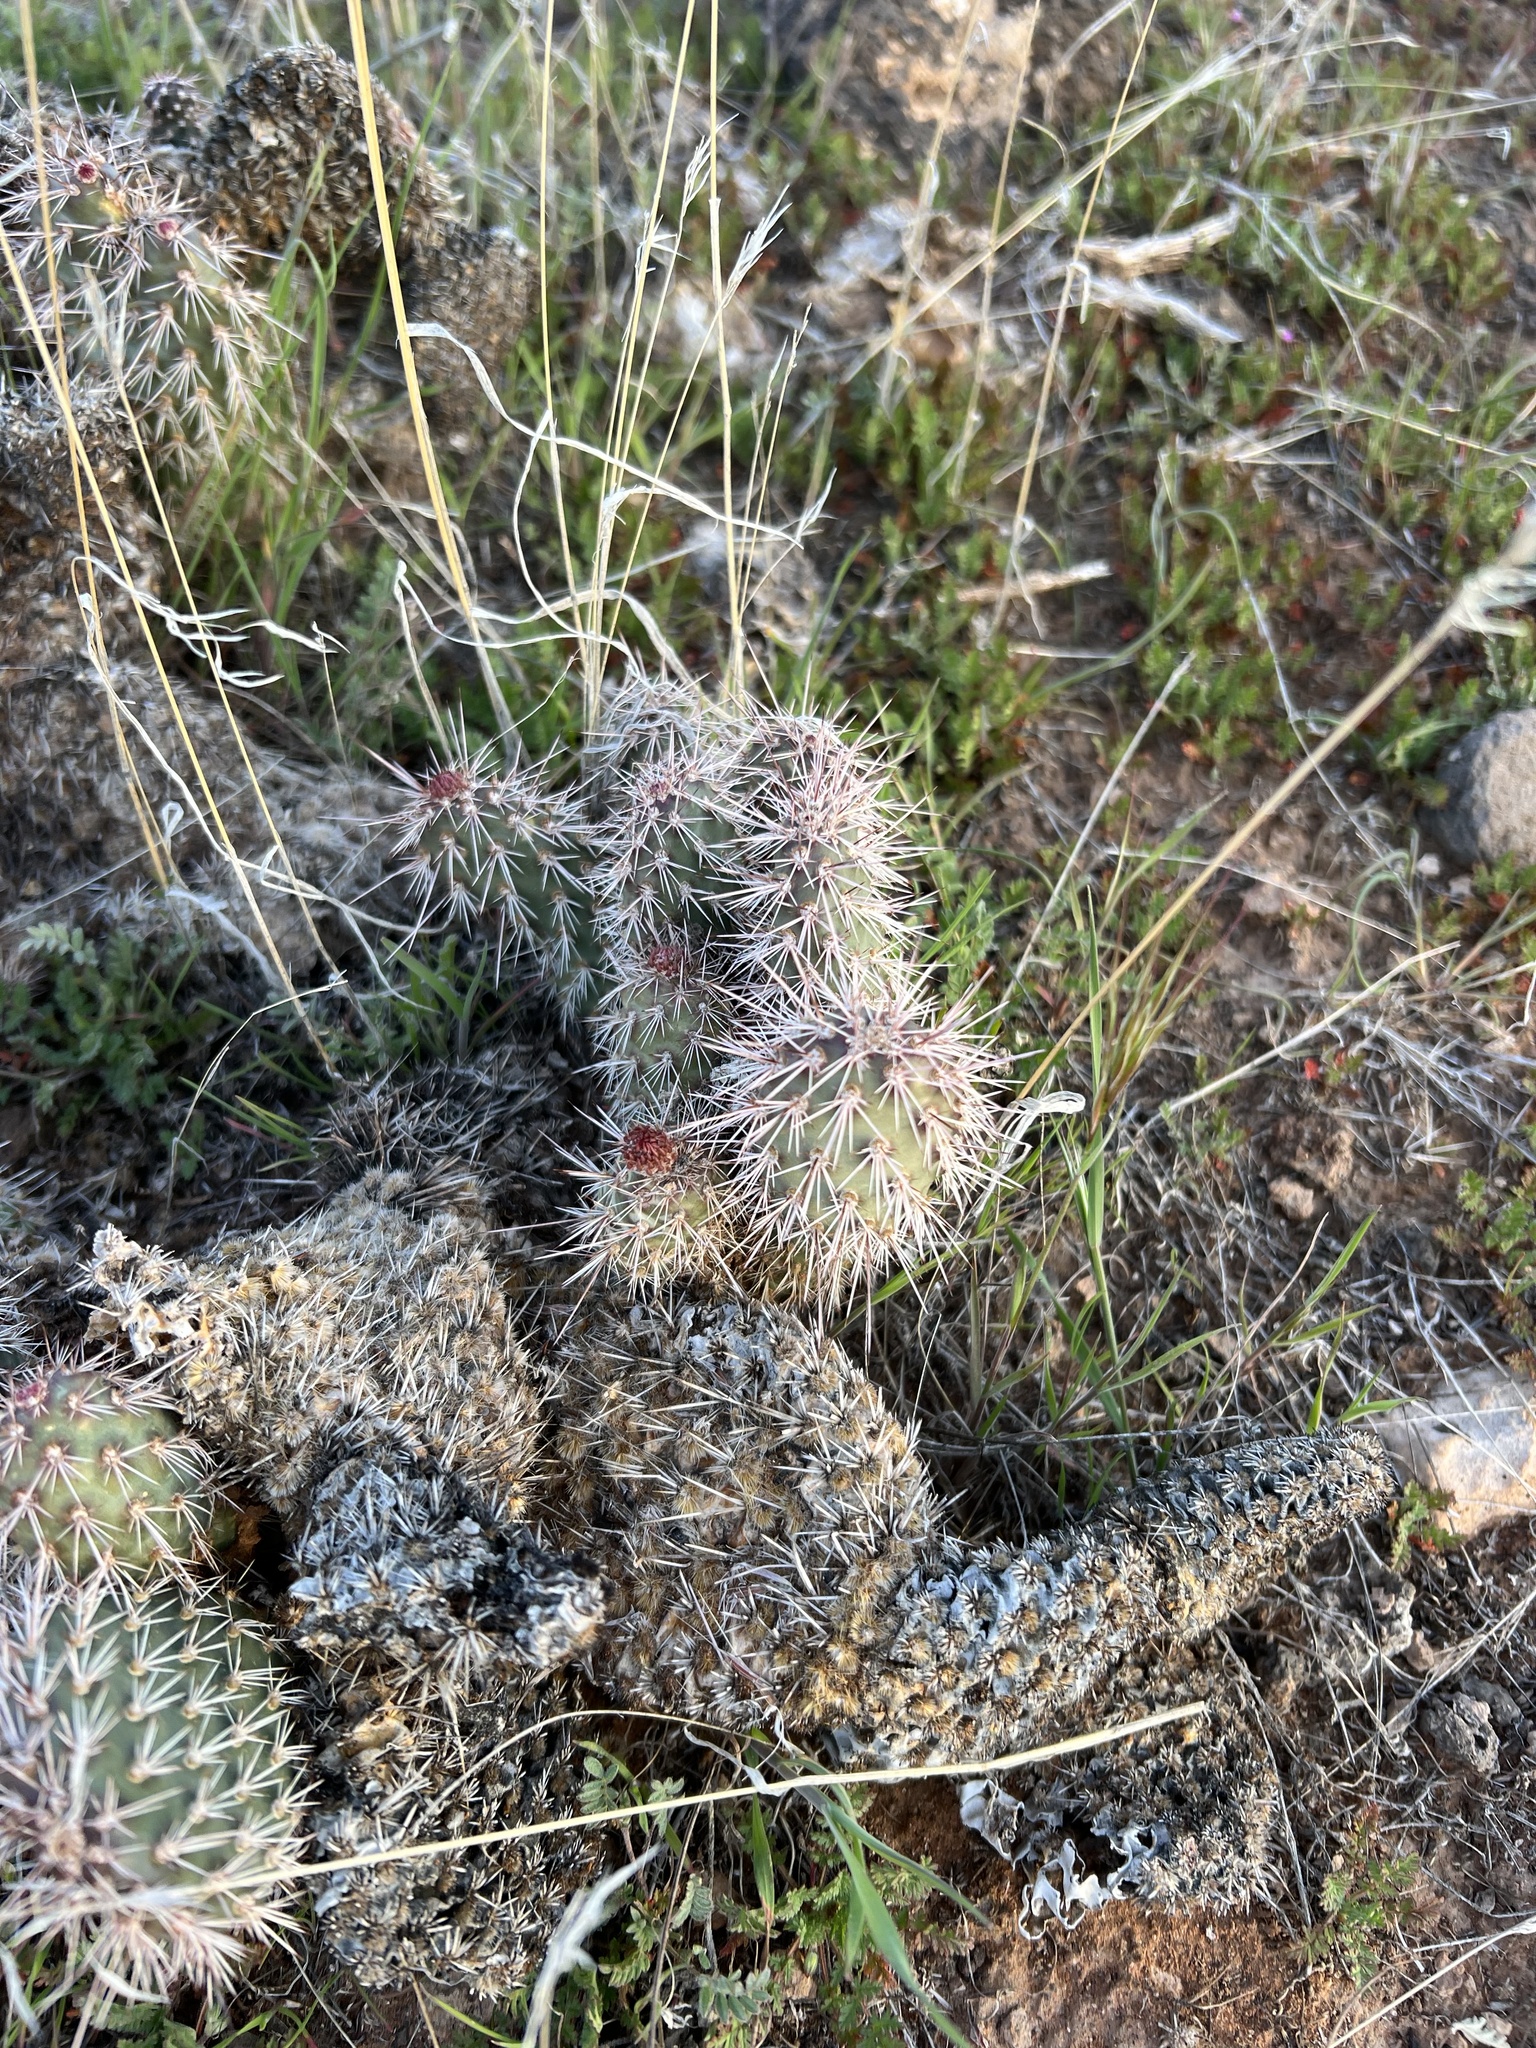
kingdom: Plantae
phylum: Tracheophyta
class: Magnoliopsida
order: Caryophyllales
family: Cactaceae
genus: Opuntia
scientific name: Opuntia polyacantha
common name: Plains prickly-pear
